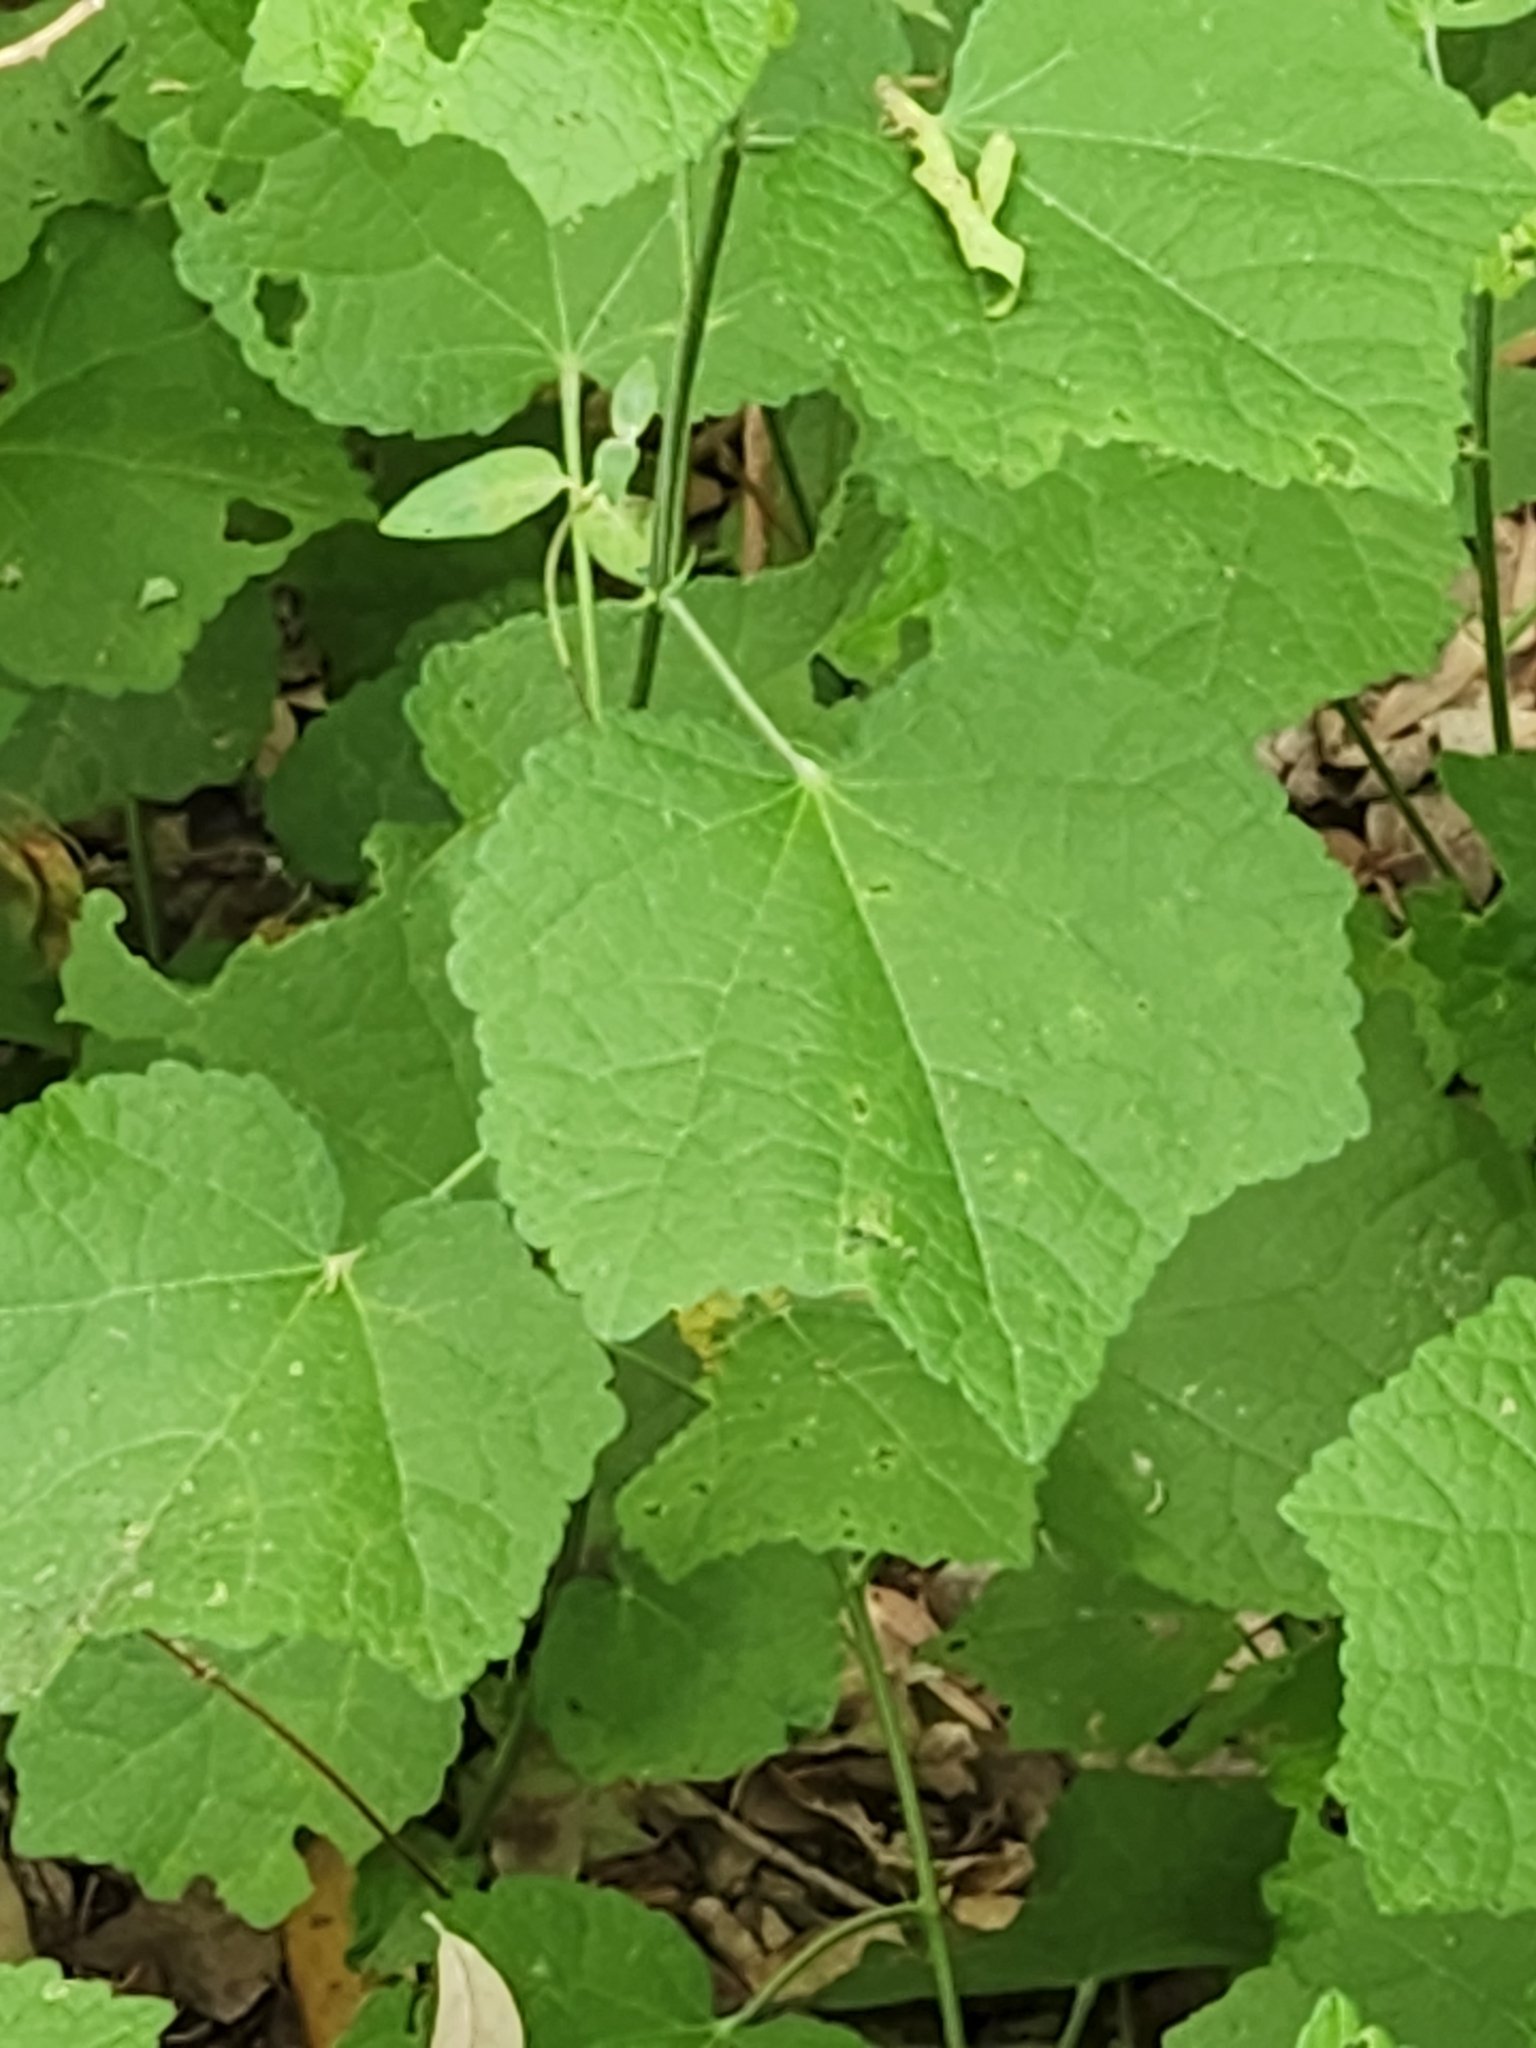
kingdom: Plantae
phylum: Tracheophyta
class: Magnoliopsida
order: Malvales
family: Malvaceae
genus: Malvaviscus
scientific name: Malvaviscus arboreus
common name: Wax mallow
